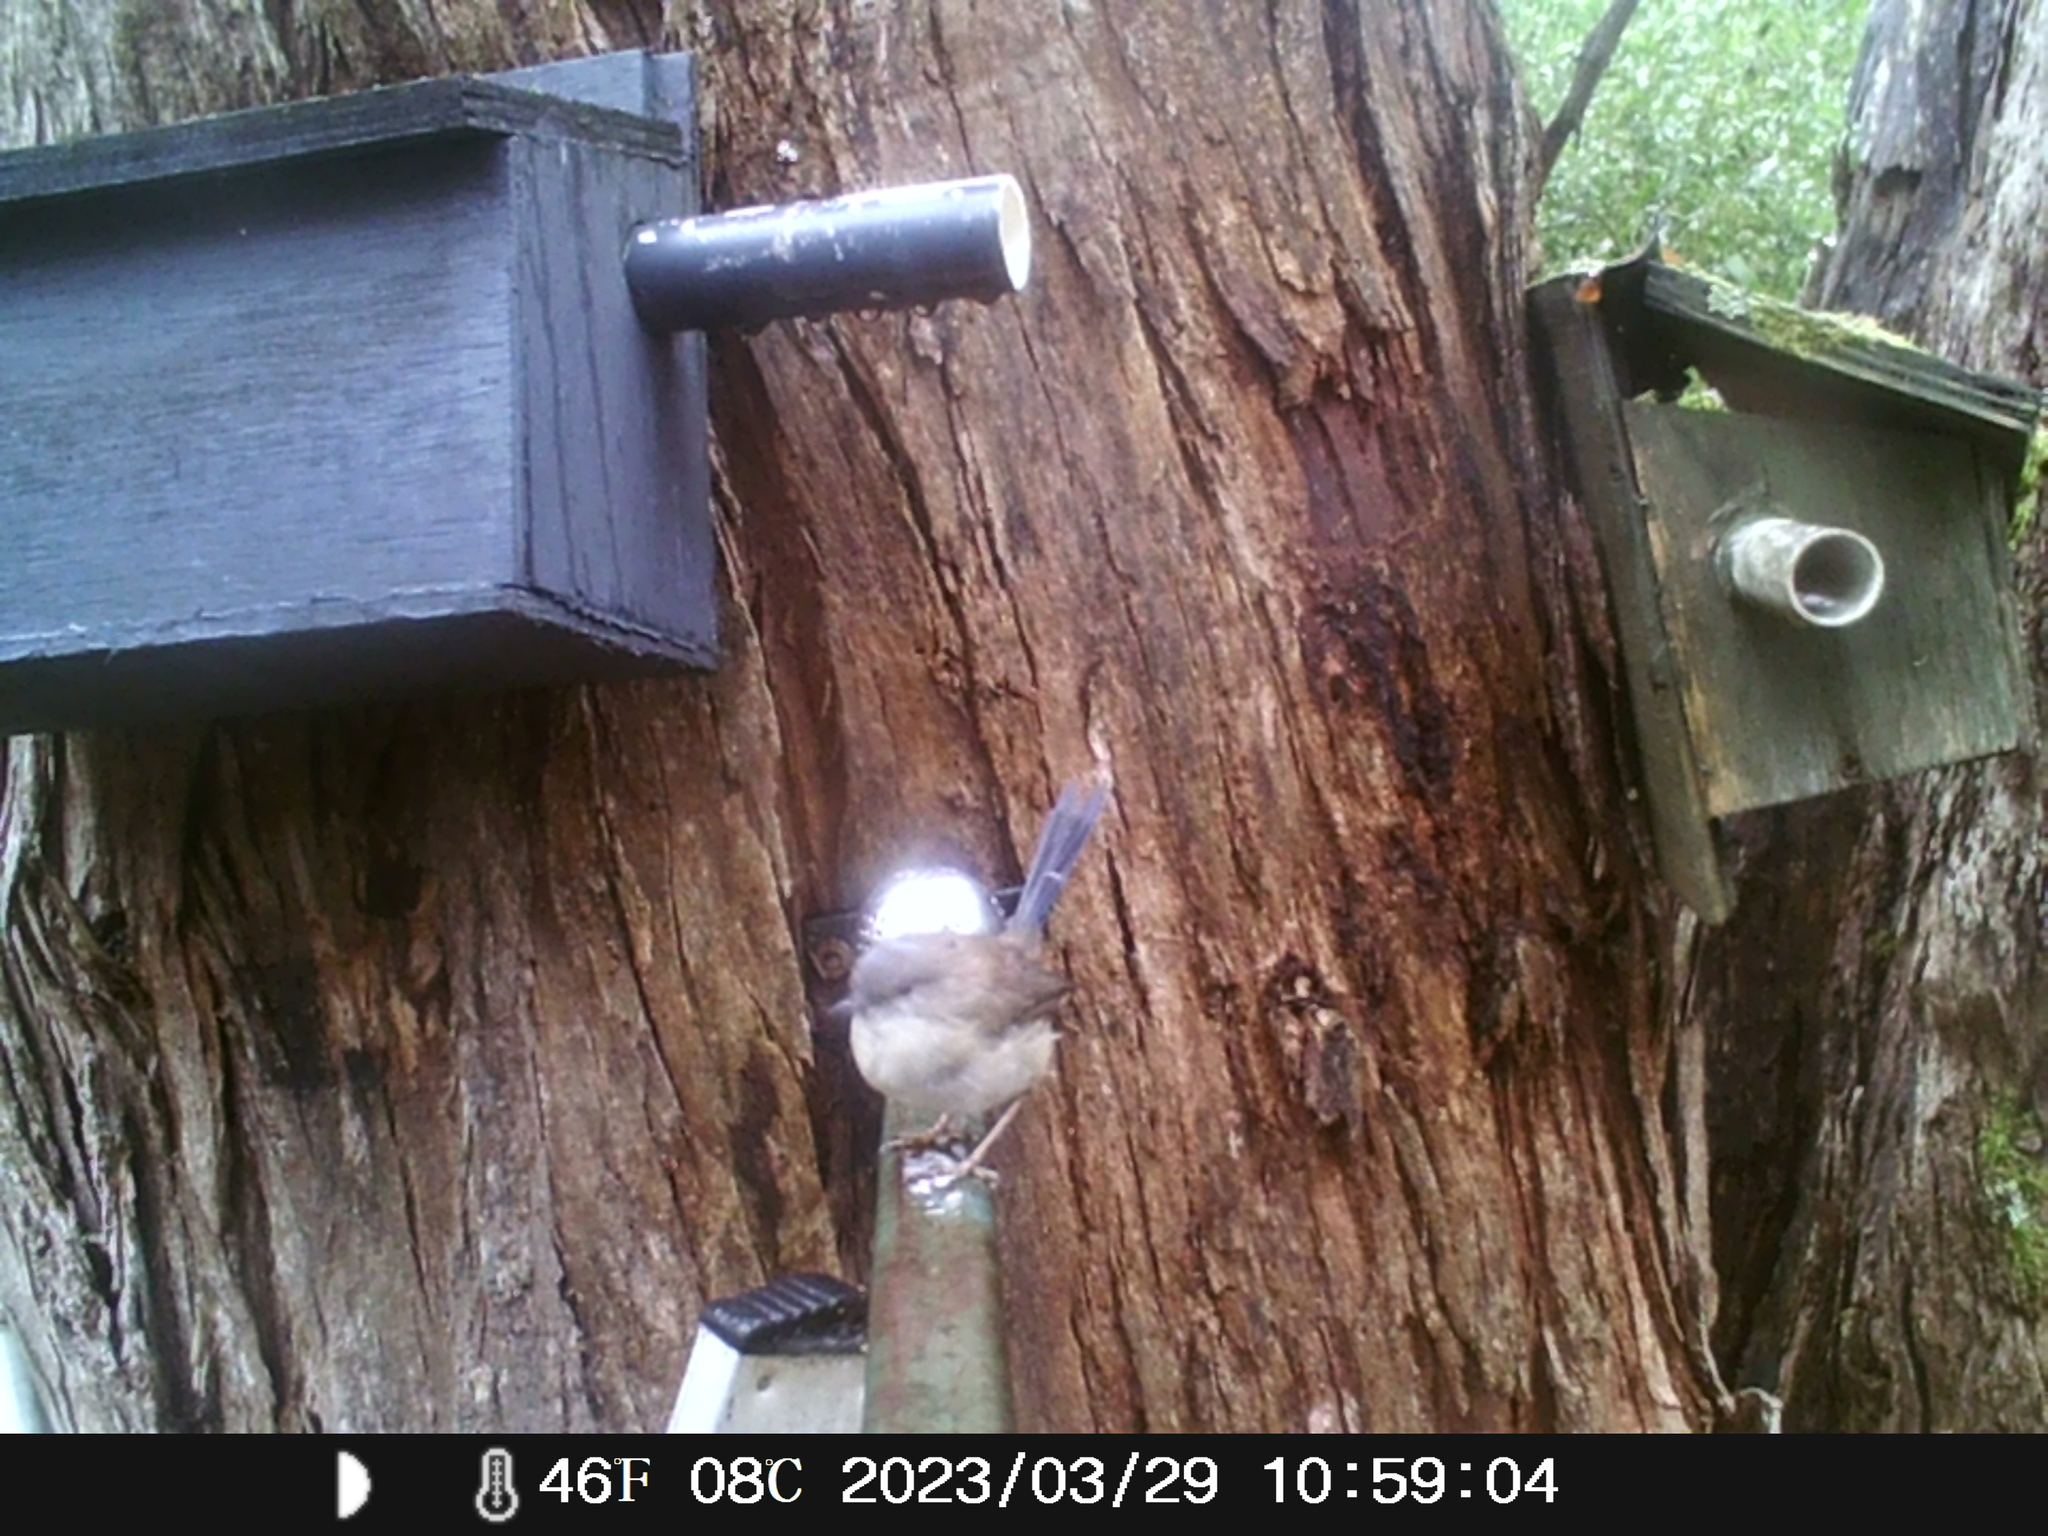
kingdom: Animalia
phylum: Chordata
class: Aves
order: Passeriformes
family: Maluridae
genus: Malurus
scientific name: Malurus cyaneus
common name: Superb fairywren
